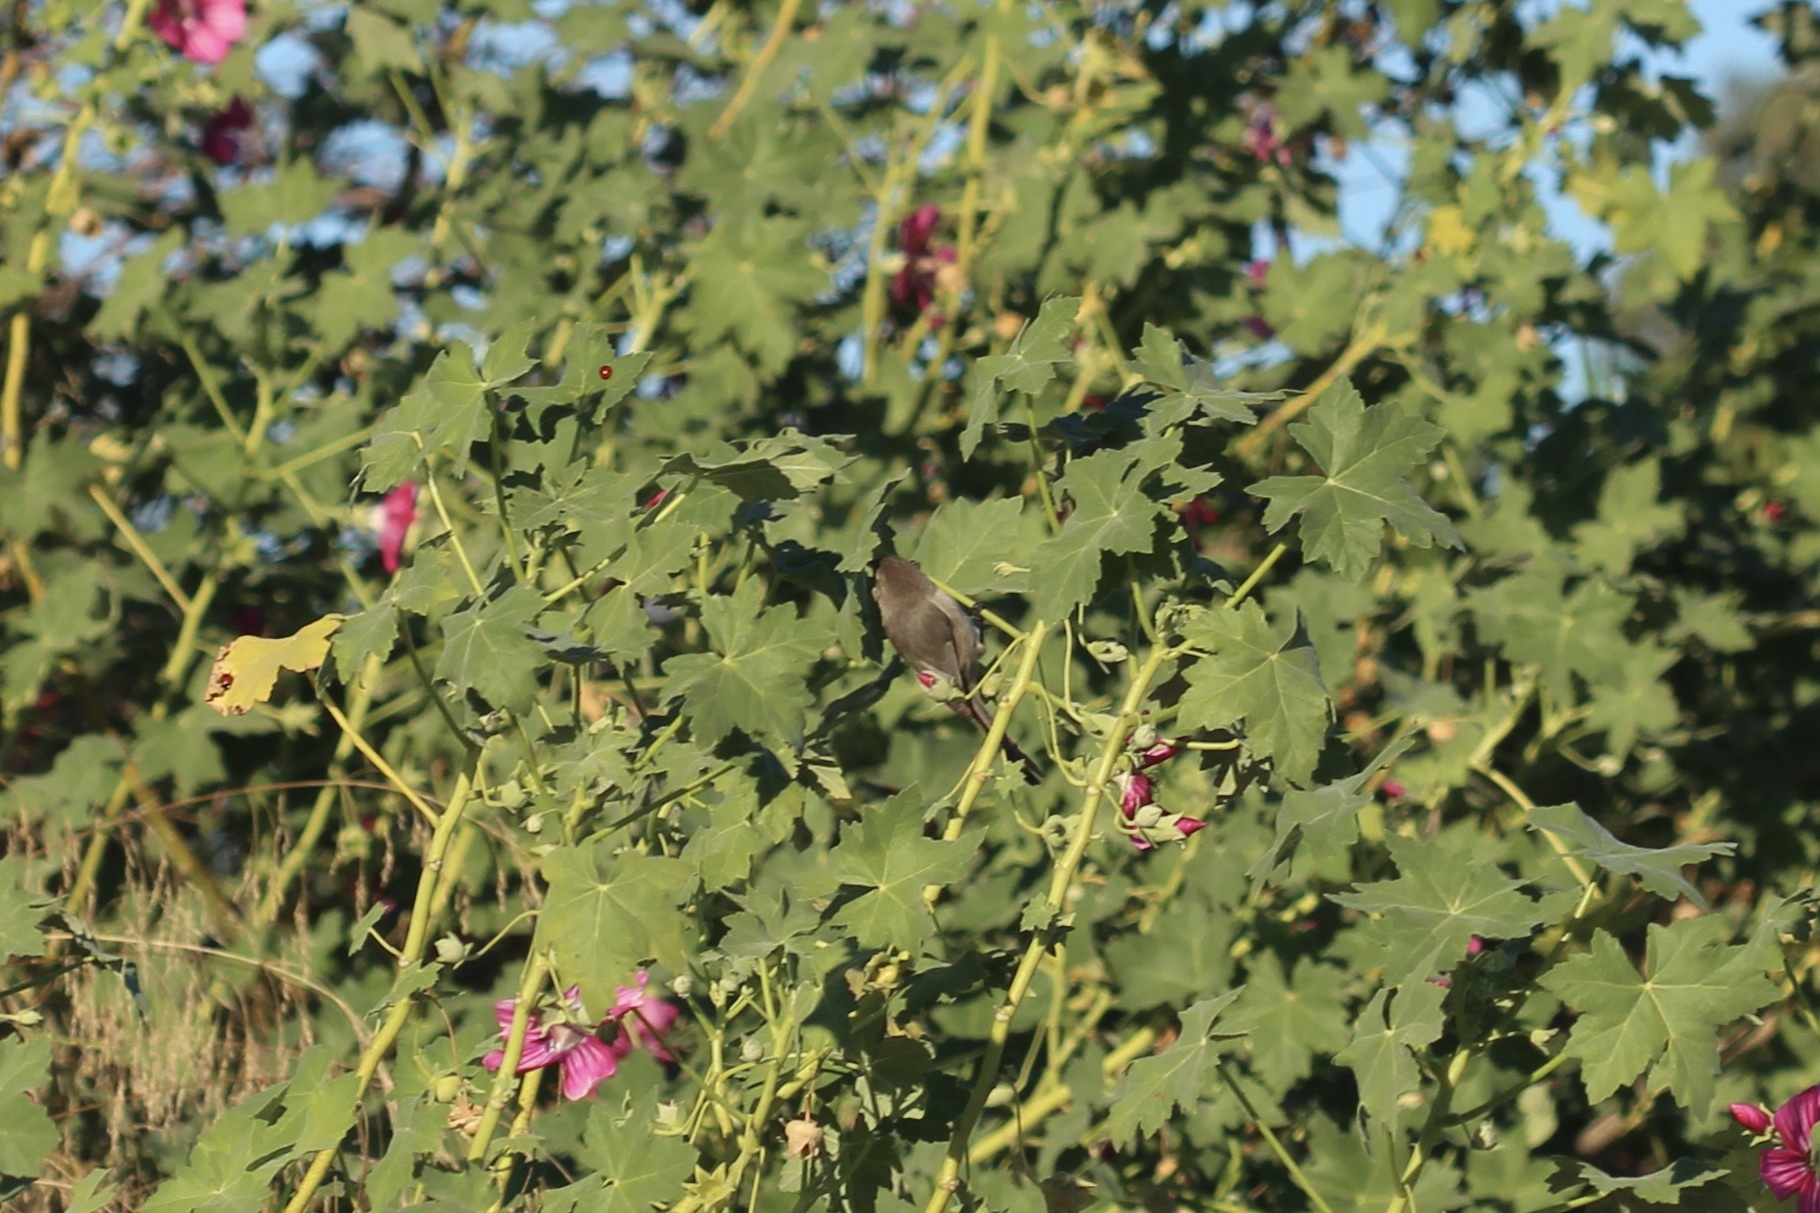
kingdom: Animalia
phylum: Chordata
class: Aves
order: Passeriformes
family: Aegithalidae
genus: Psaltriparus
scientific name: Psaltriparus minimus
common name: American bushtit
